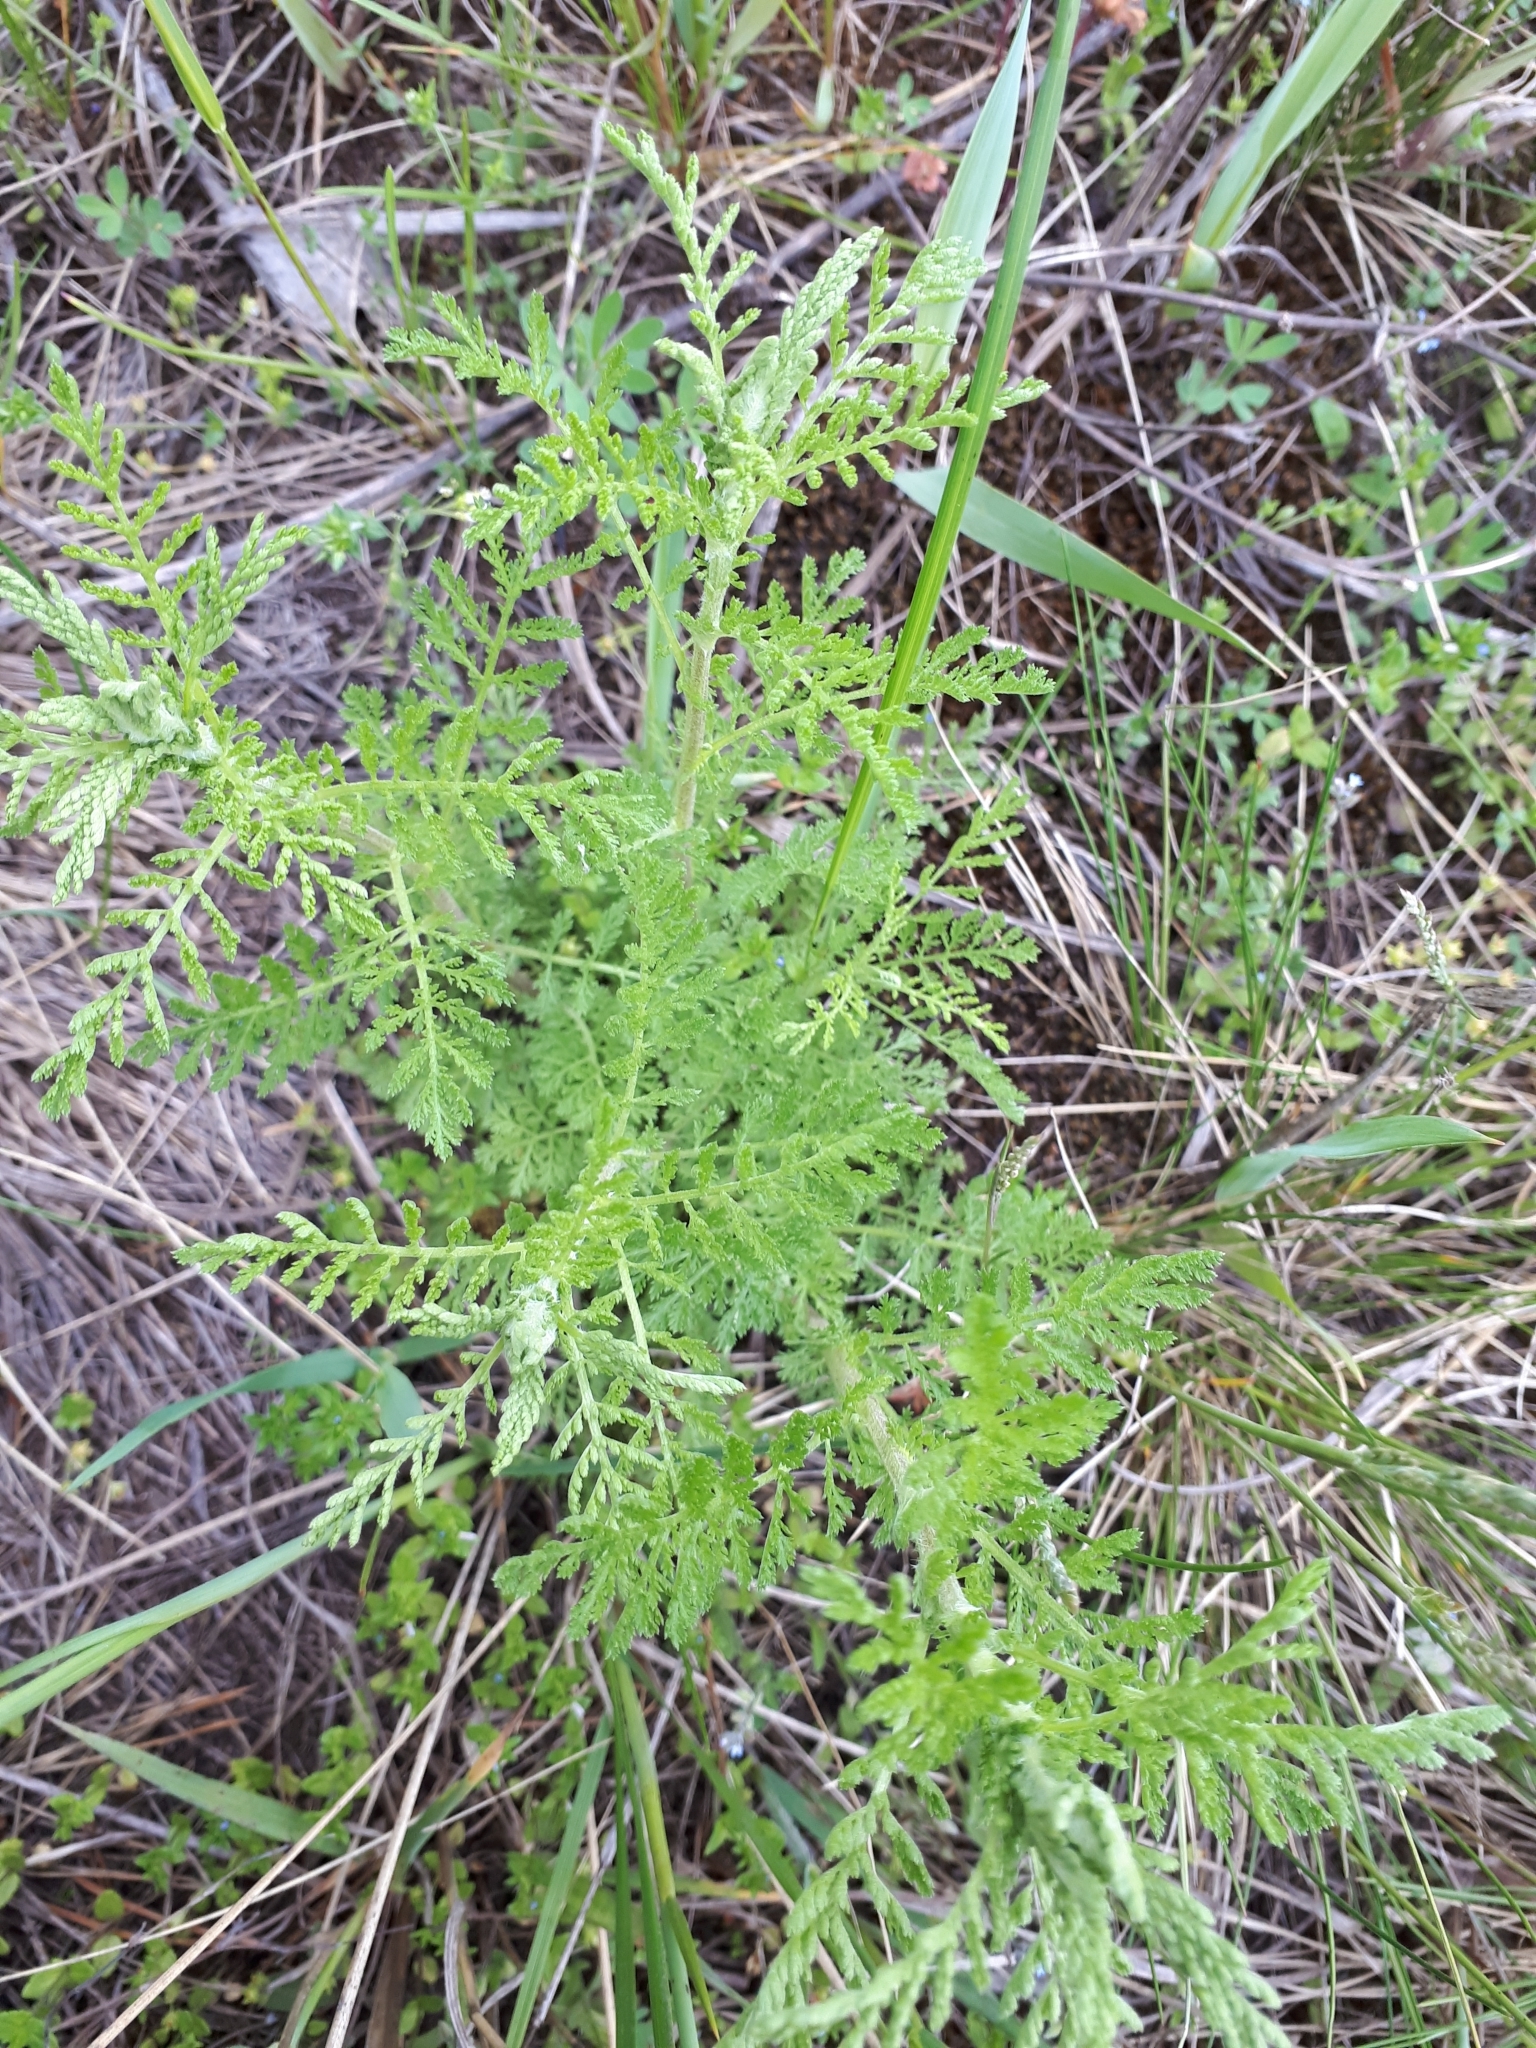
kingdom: Plantae
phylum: Tracheophyta
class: Magnoliopsida
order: Asterales
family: Asteraceae
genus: Cota
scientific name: Cota tinctoria
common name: Golden chamomile
